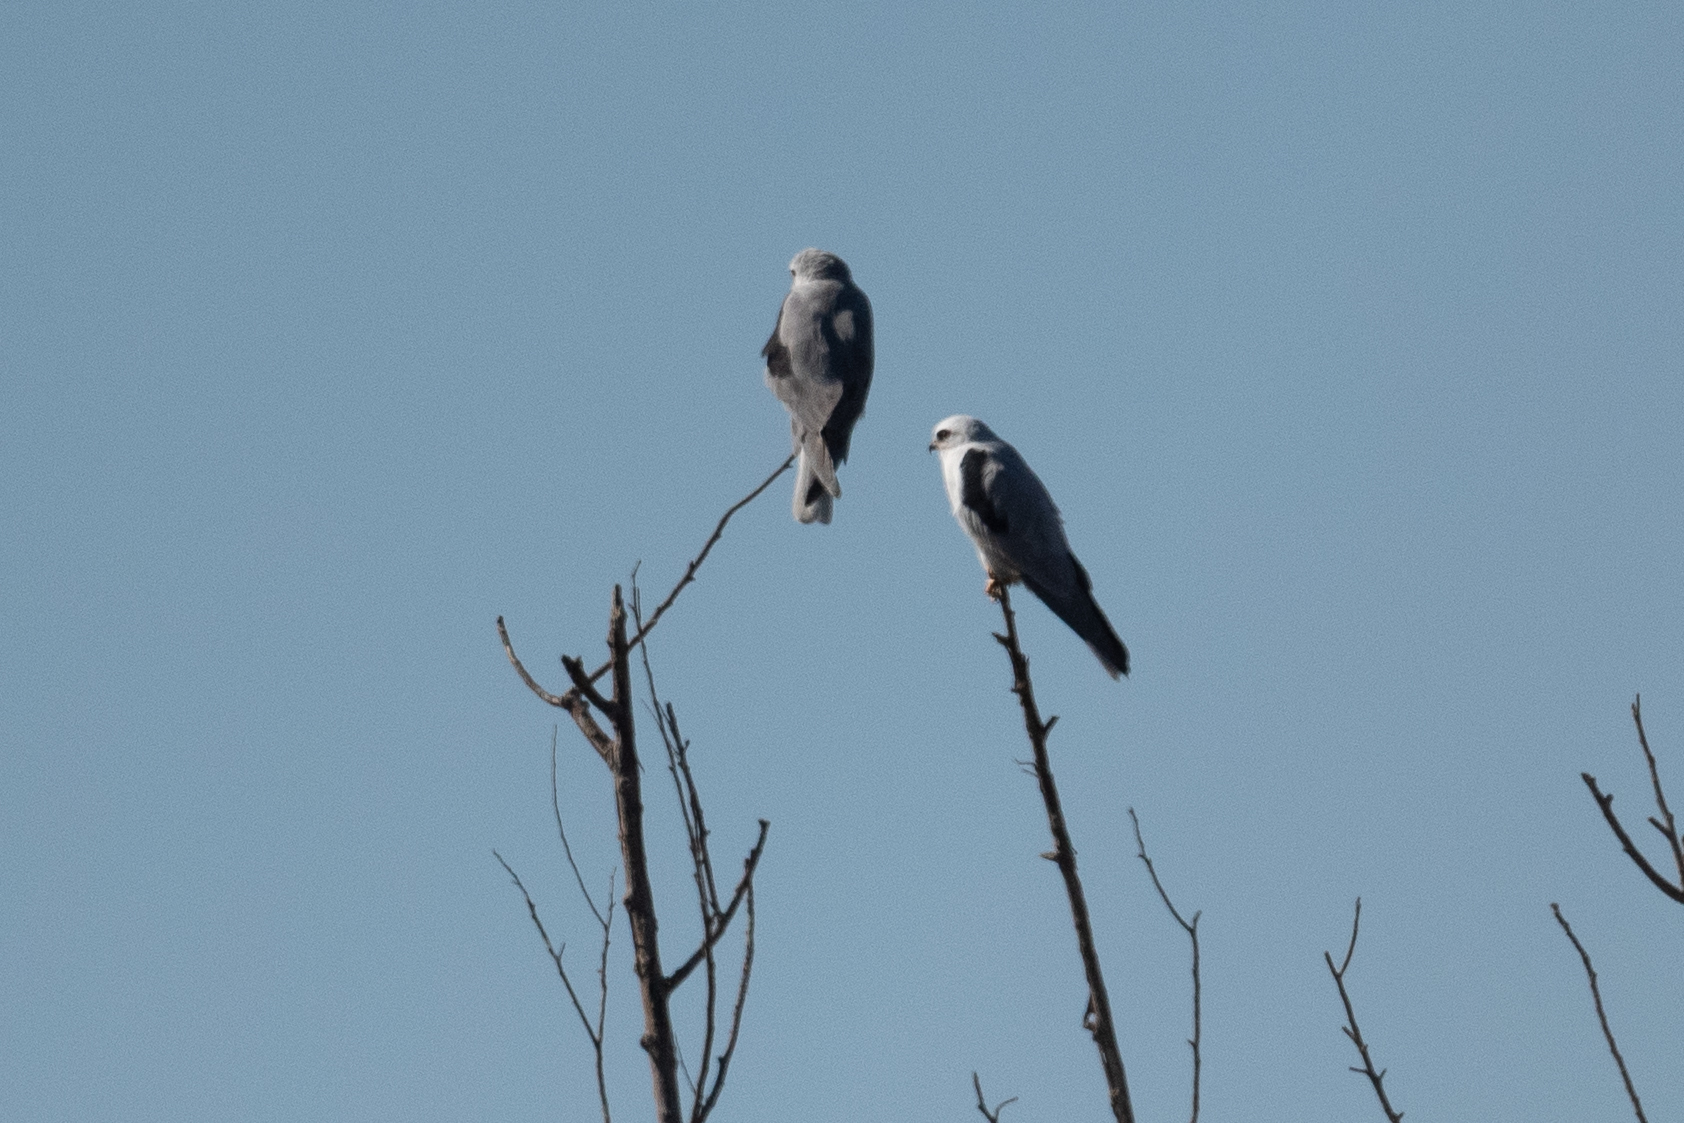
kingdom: Animalia
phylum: Chordata
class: Aves
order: Accipitriformes
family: Accipitridae
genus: Elanus
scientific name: Elanus leucurus
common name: White-tailed kite
